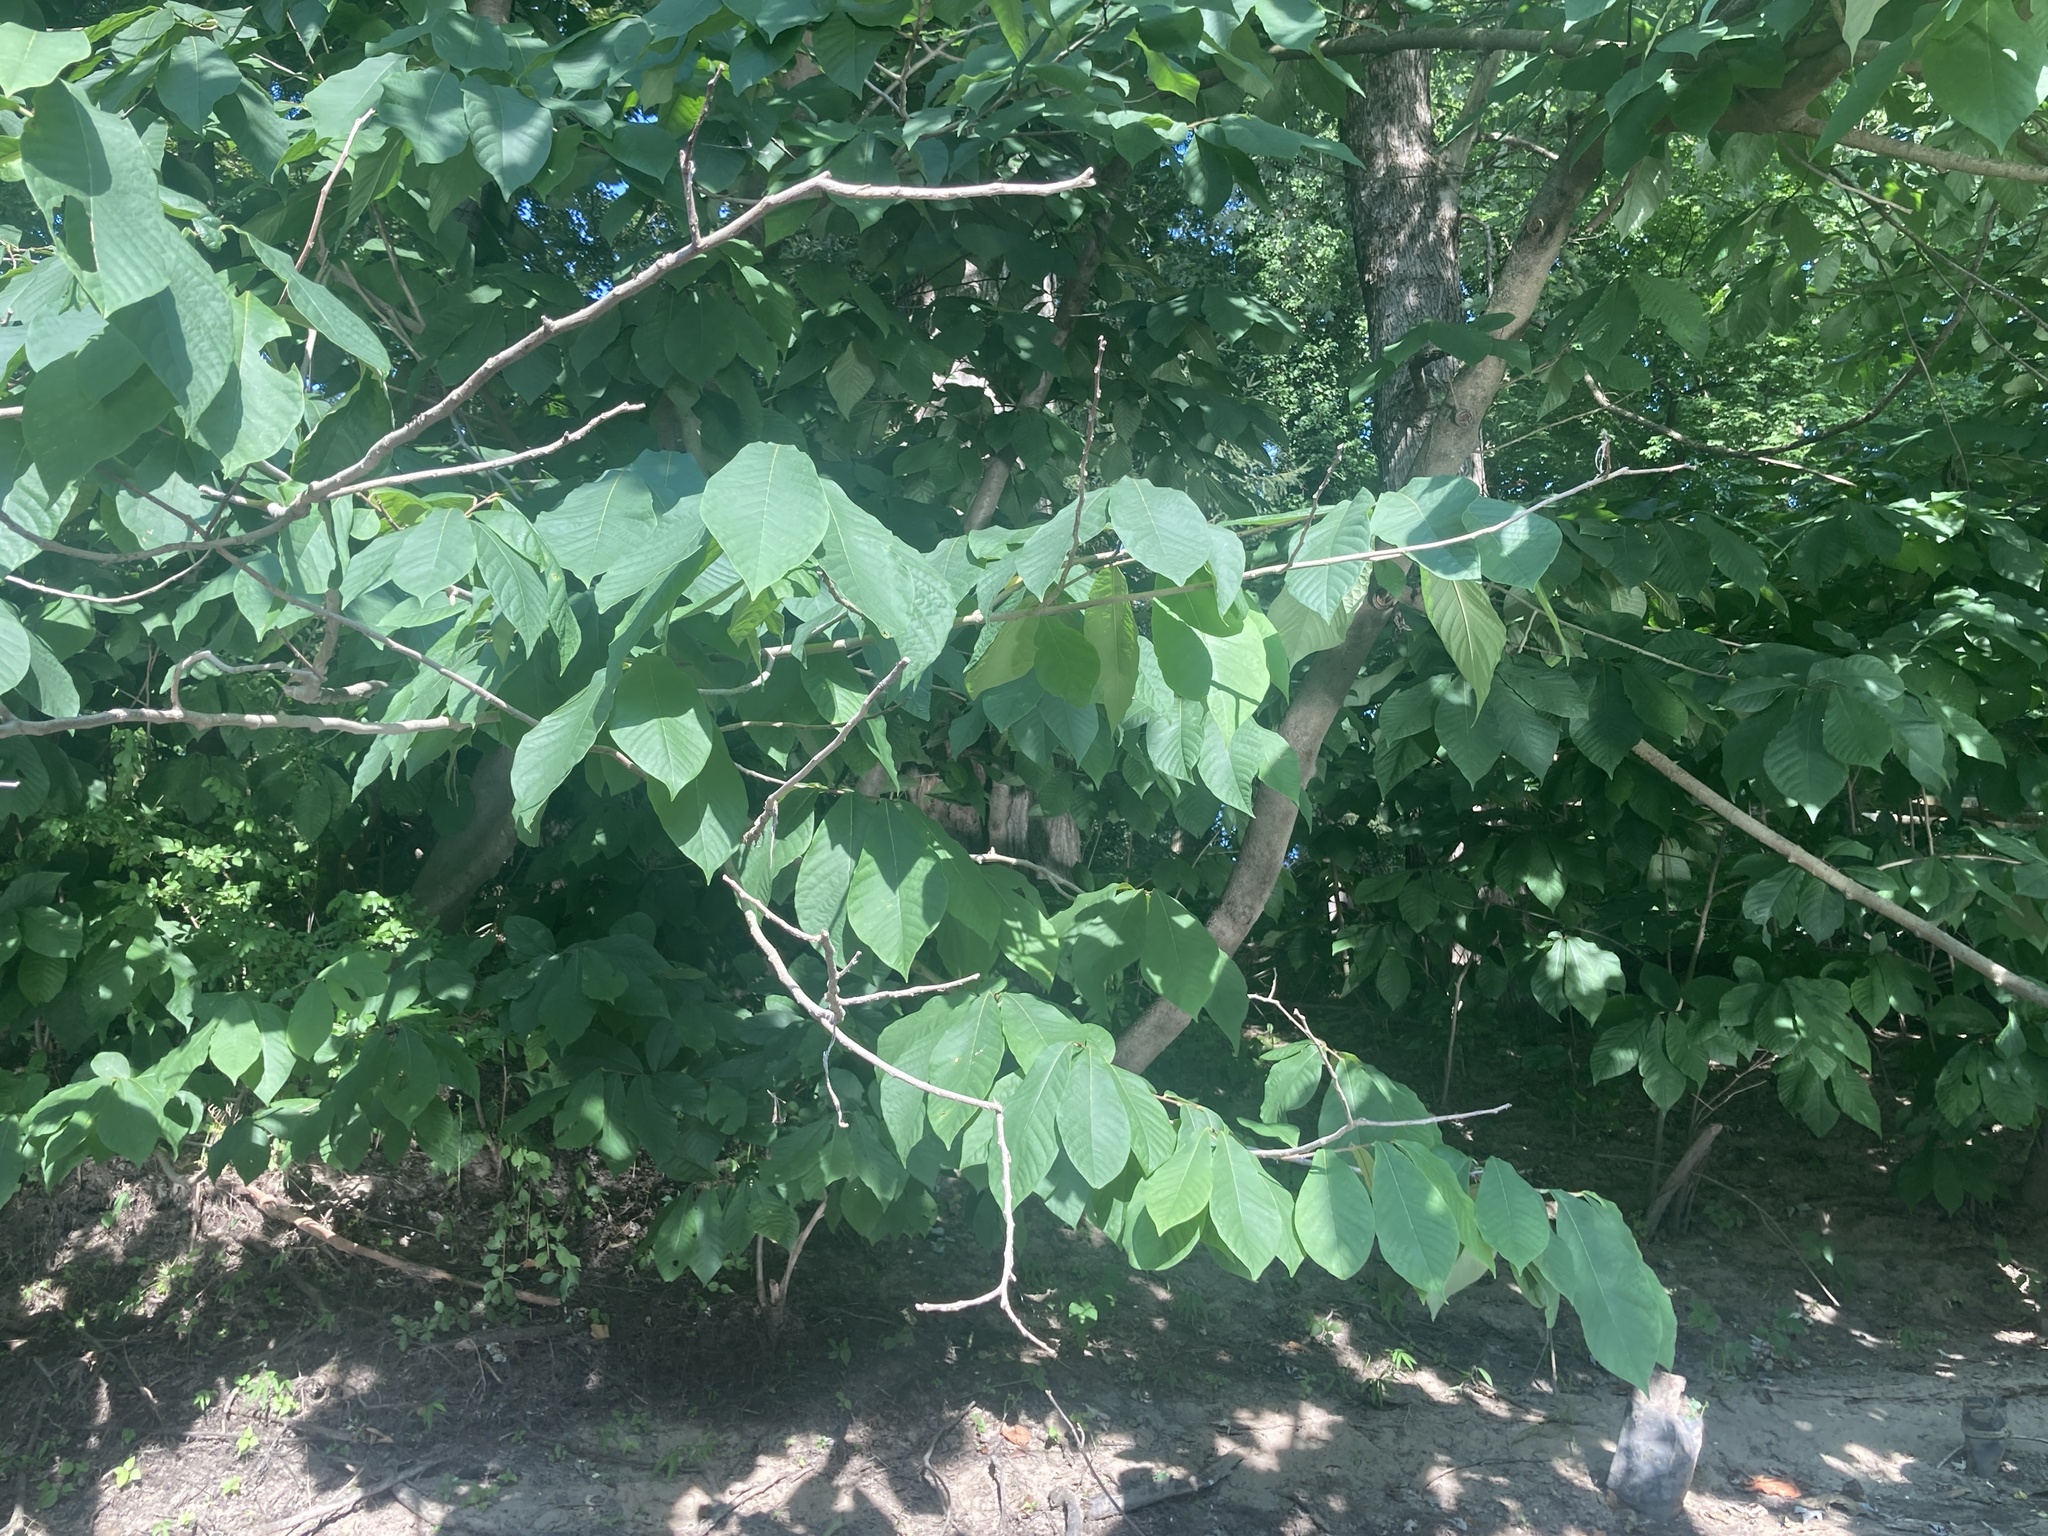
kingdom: Plantae
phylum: Tracheophyta
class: Magnoliopsida
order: Magnoliales
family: Annonaceae
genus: Asimina
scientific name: Asimina triloba
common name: Dog-banana
